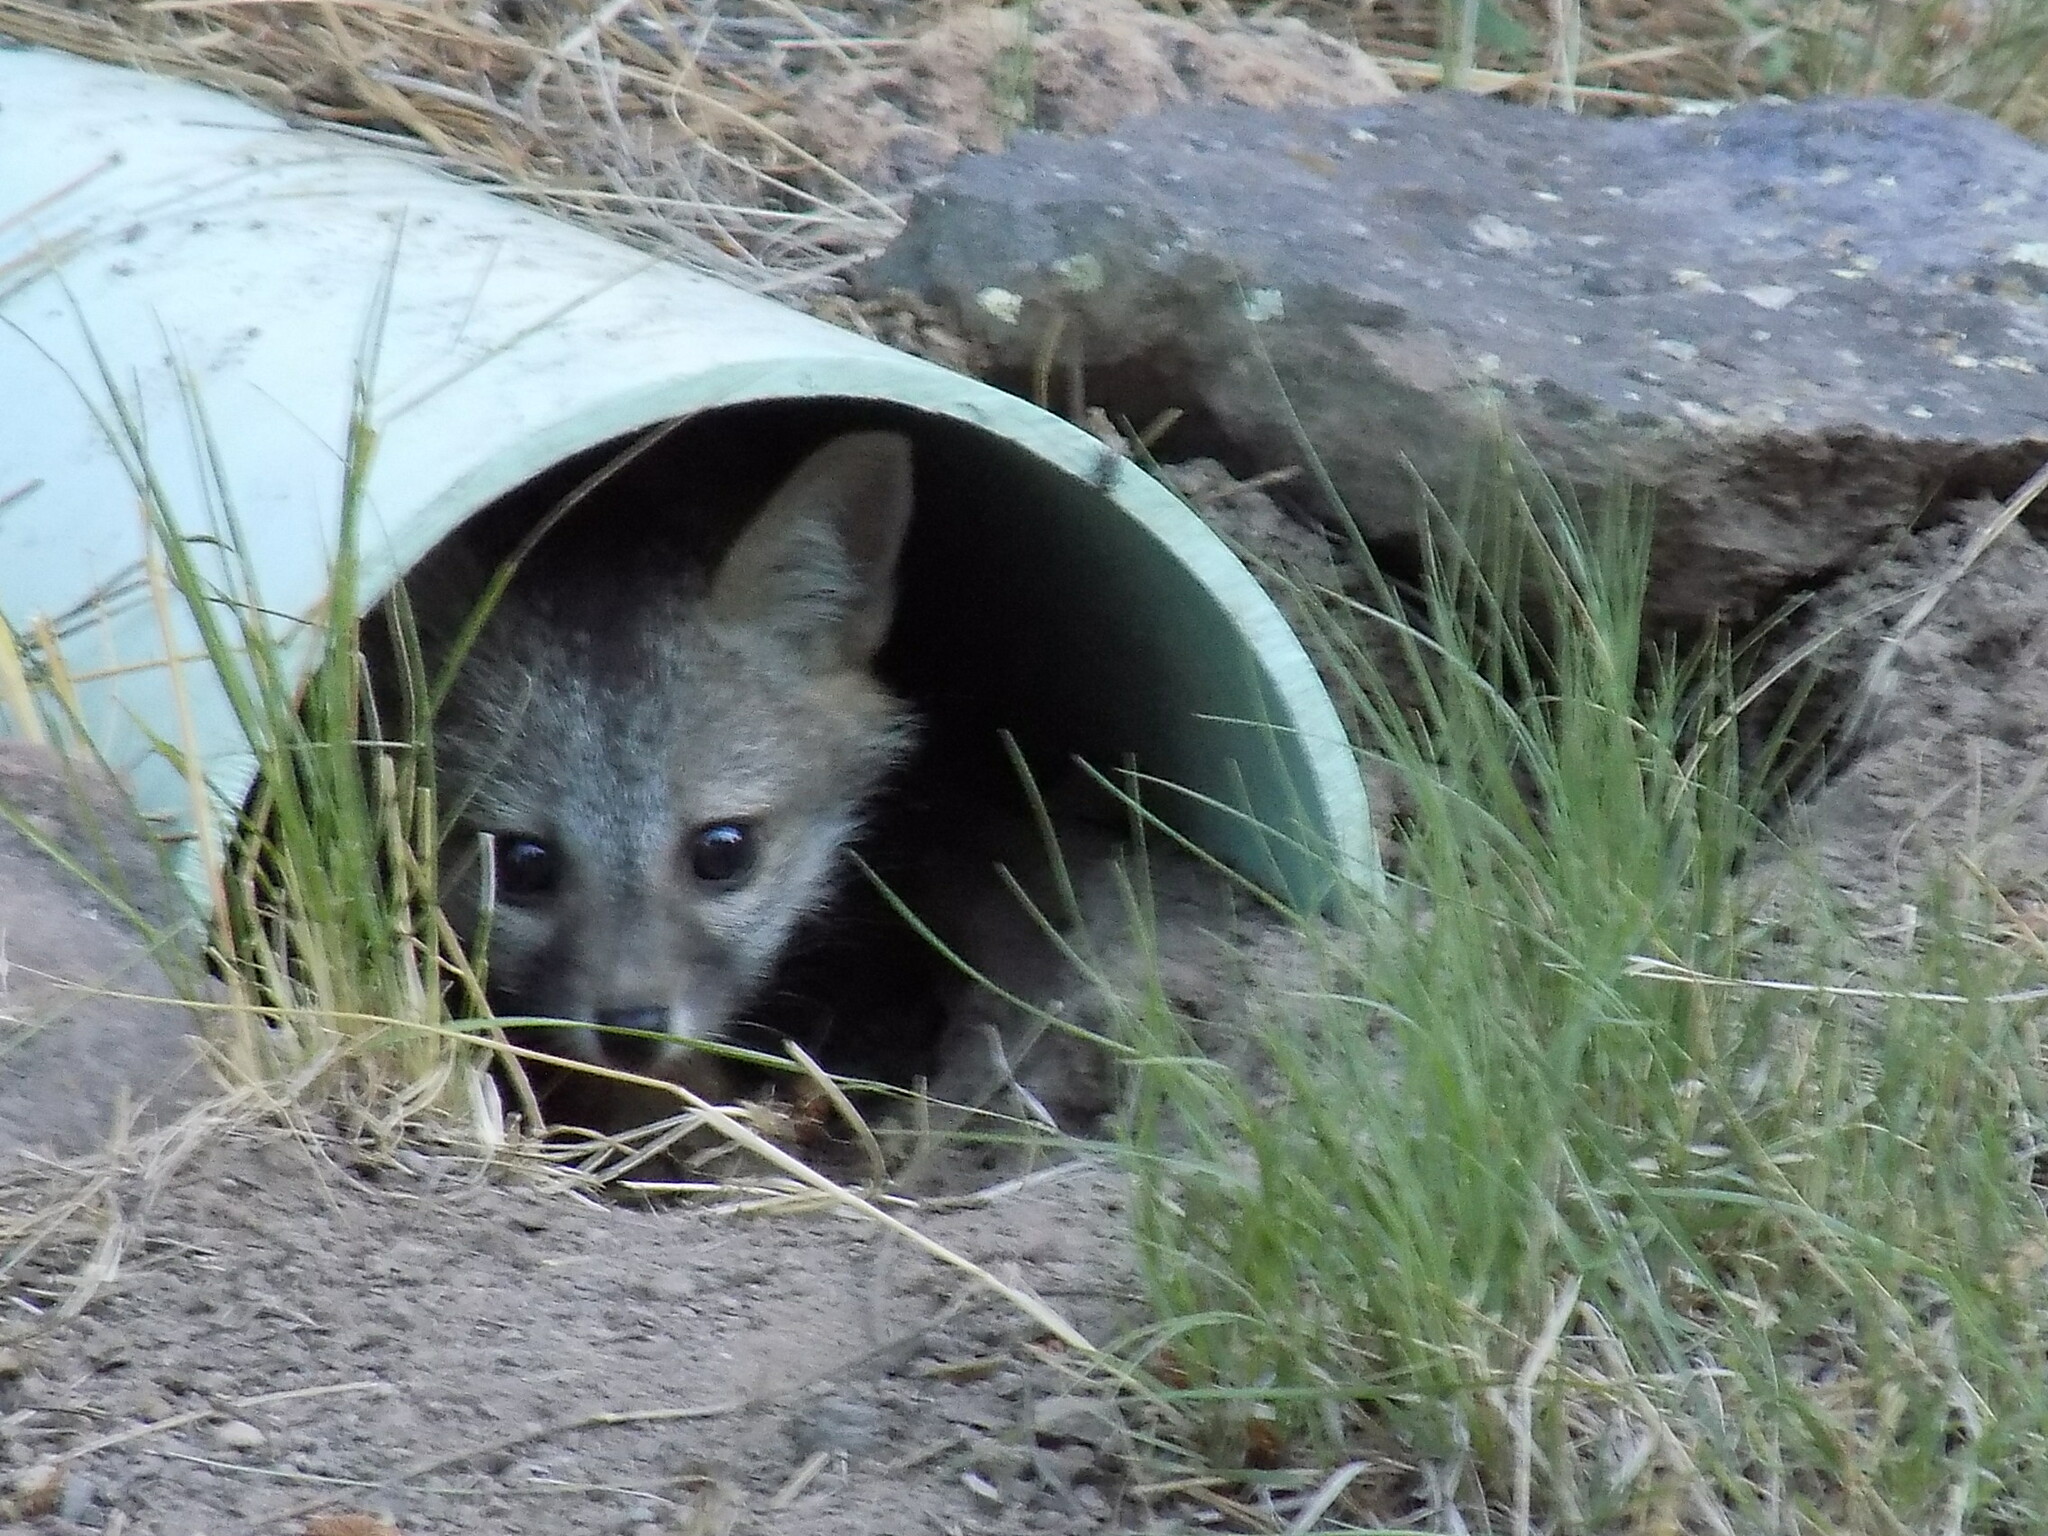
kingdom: Animalia
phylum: Chordata
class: Mammalia
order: Carnivora
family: Canidae
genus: Urocyon
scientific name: Urocyon cinereoargenteus
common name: Gray fox
